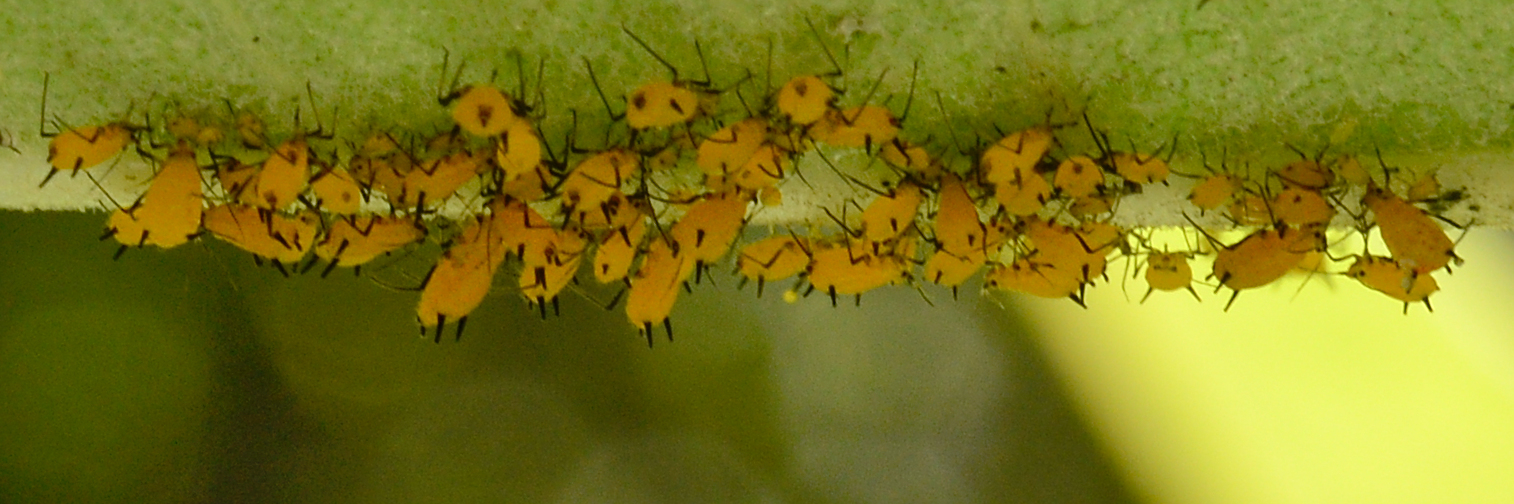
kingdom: Animalia
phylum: Arthropoda
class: Insecta
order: Hemiptera
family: Aphididae
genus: Aphis
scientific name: Aphis nerii
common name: Oleander aphid
